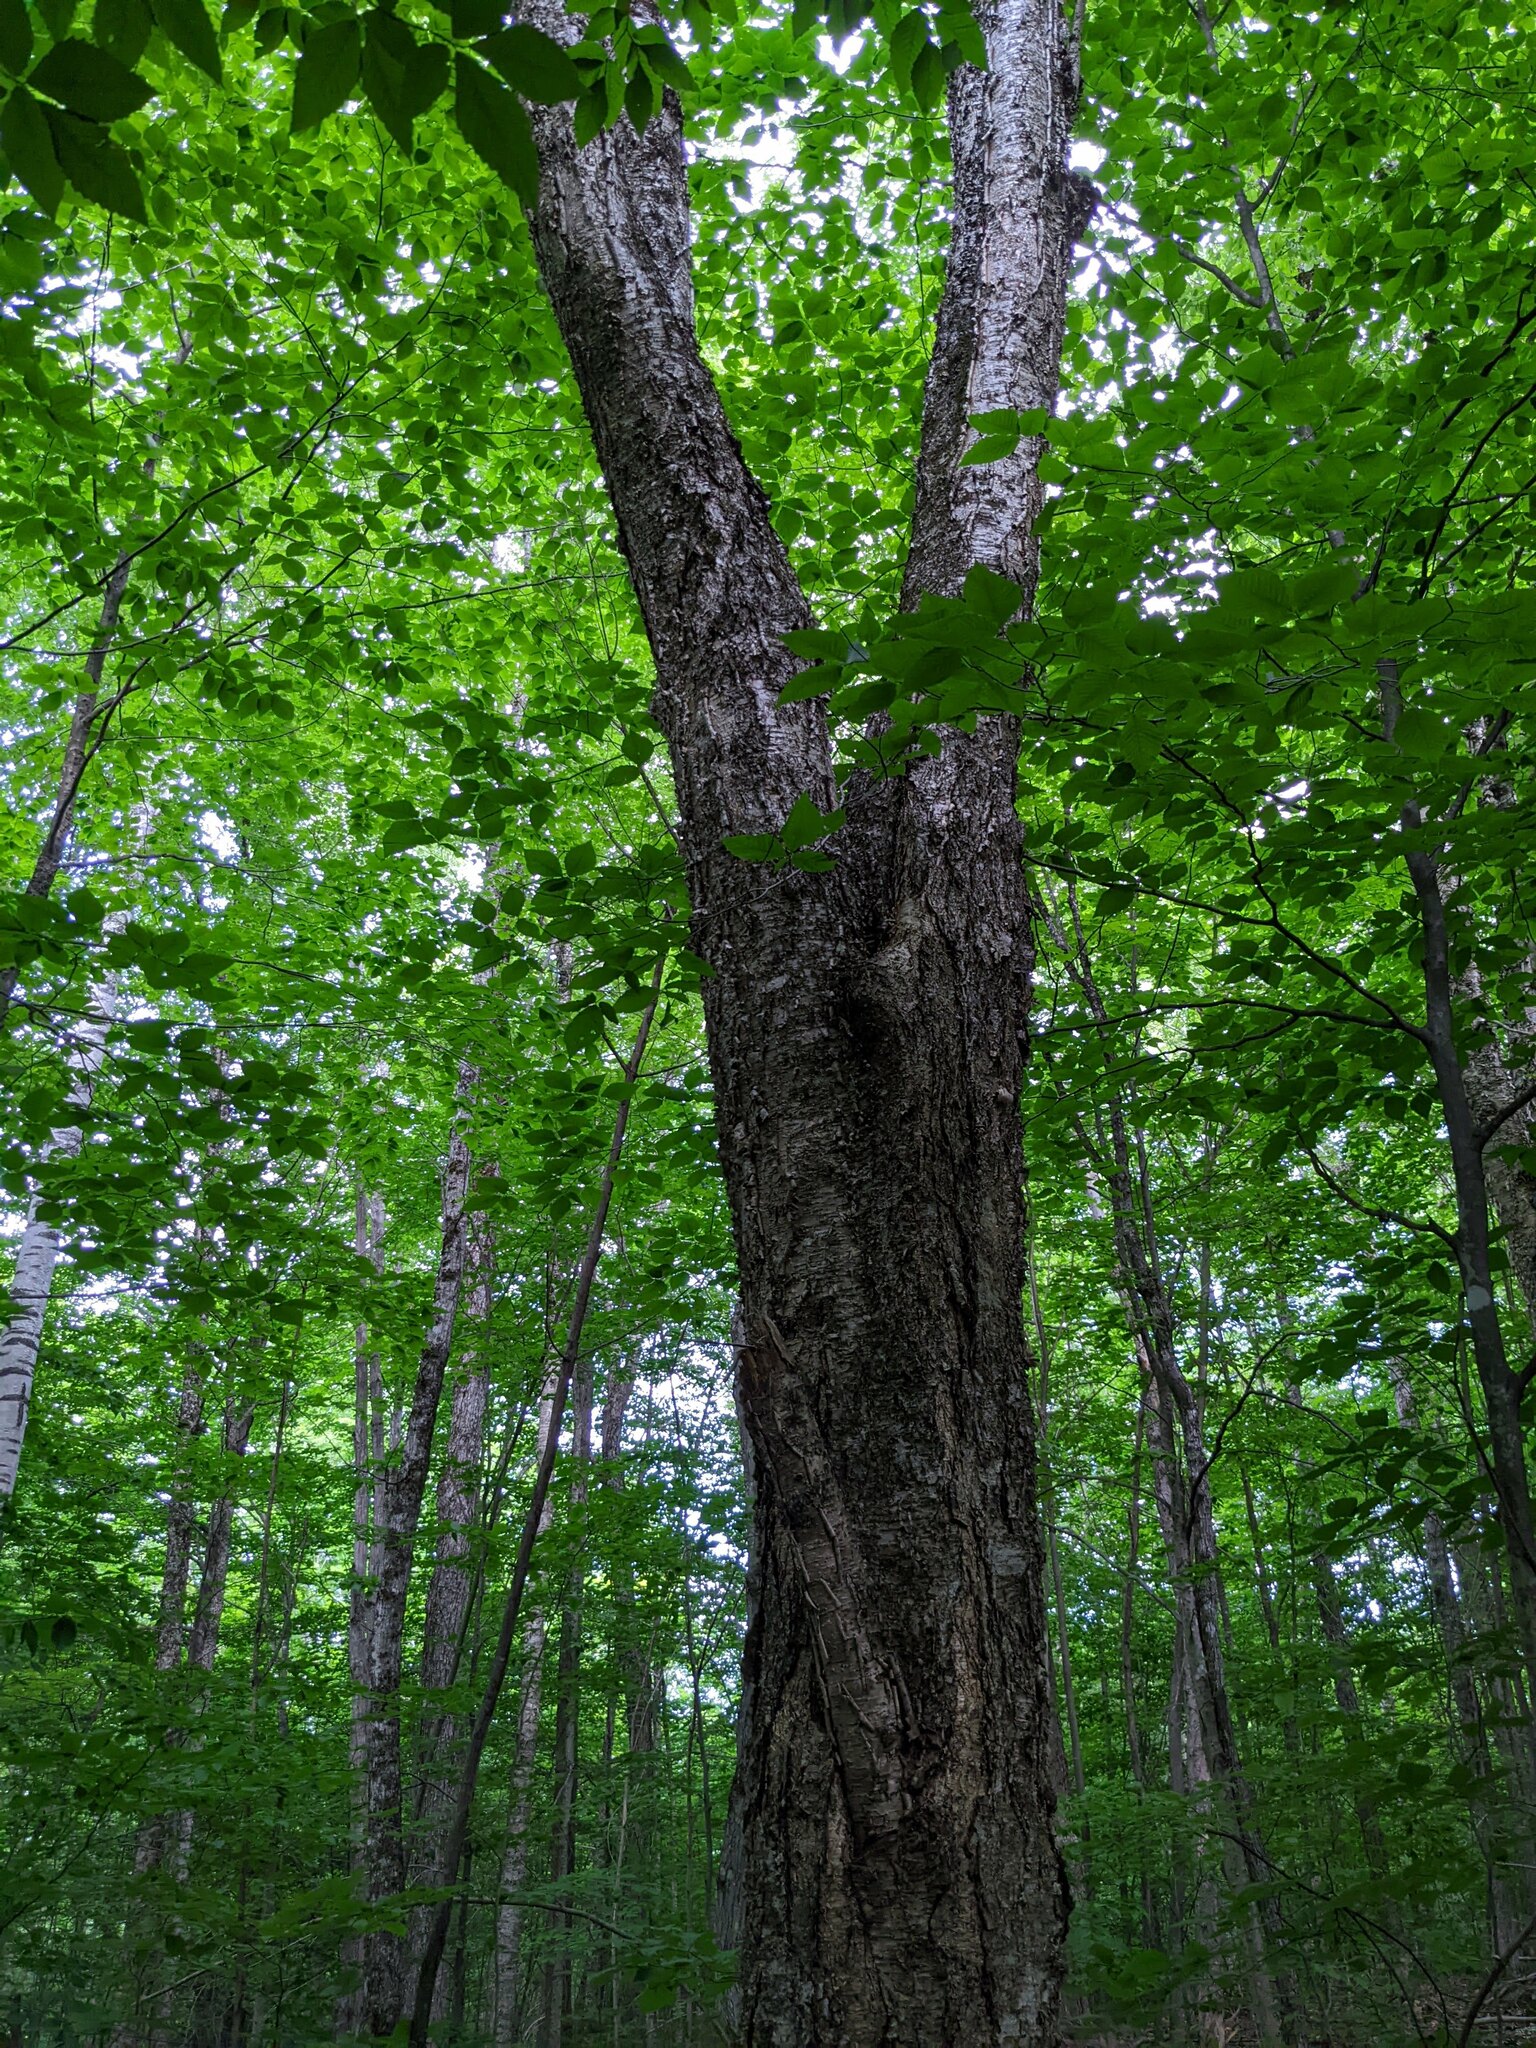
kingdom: Plantae
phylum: Tracheophyta
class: Magnoliopsida
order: Fagales
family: Betulaceae
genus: Betula
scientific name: Betula alleghaniensis
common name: Yellow birch
